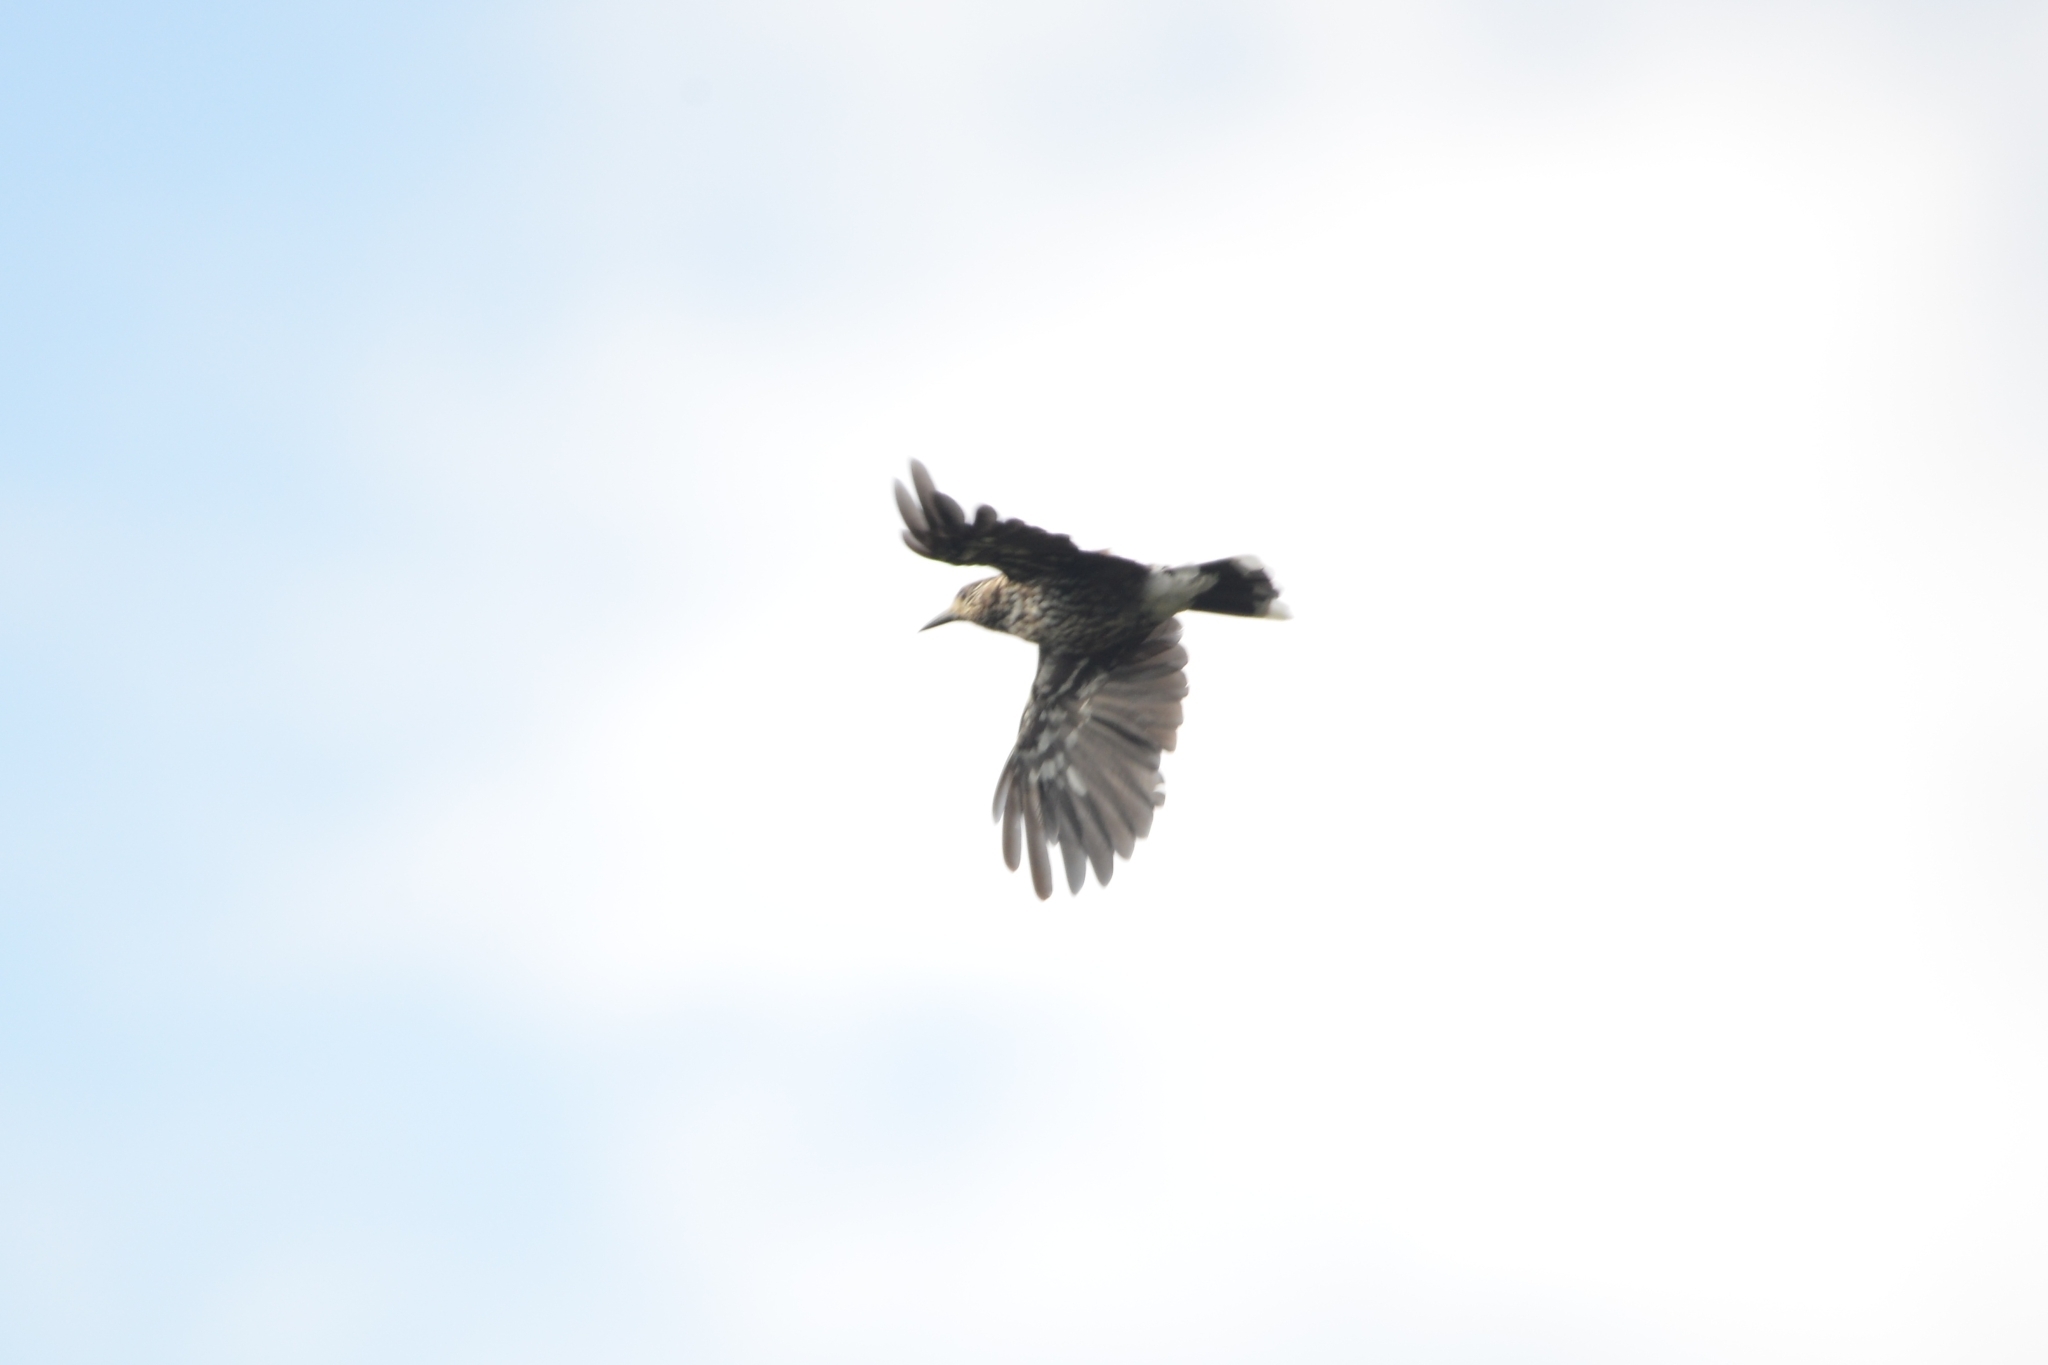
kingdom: Animalia
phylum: Chordata
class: Aves
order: Passeriformes
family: Corvidae
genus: Nucifraga
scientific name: Nucifraga caryocatactes
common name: Spotted nutcracker
